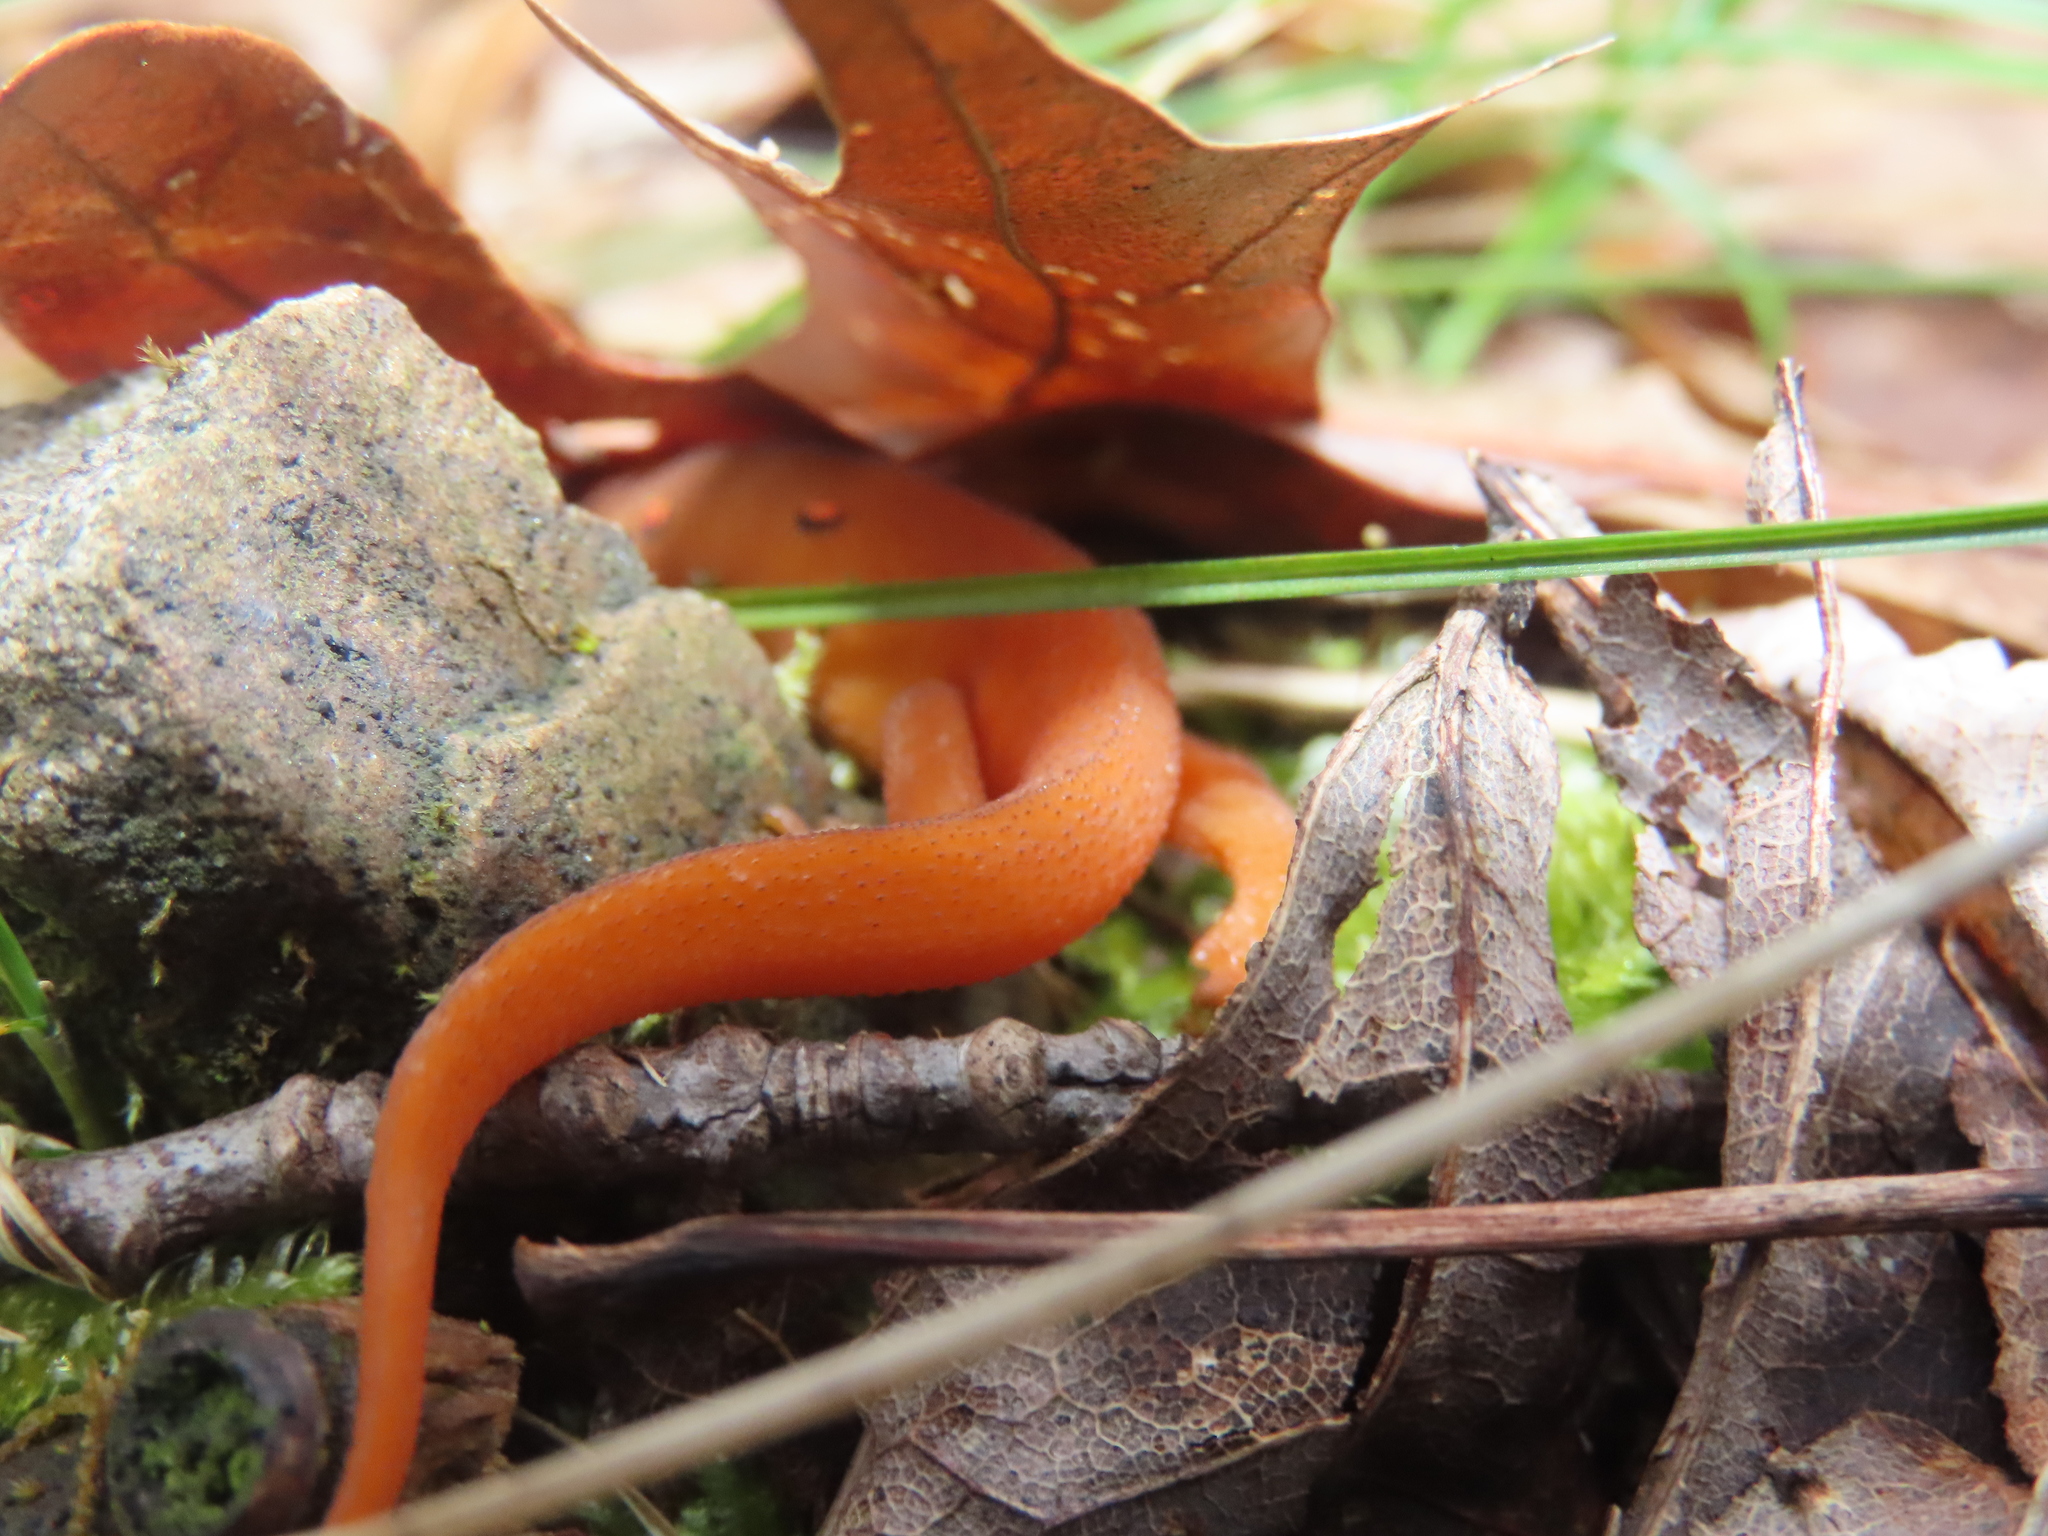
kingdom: Animalia
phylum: Chordata
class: Amphibia
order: Caudata
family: Salamandridae
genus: Notophthalmus
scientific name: Notophthalmus viridescens
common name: Eastern newt
